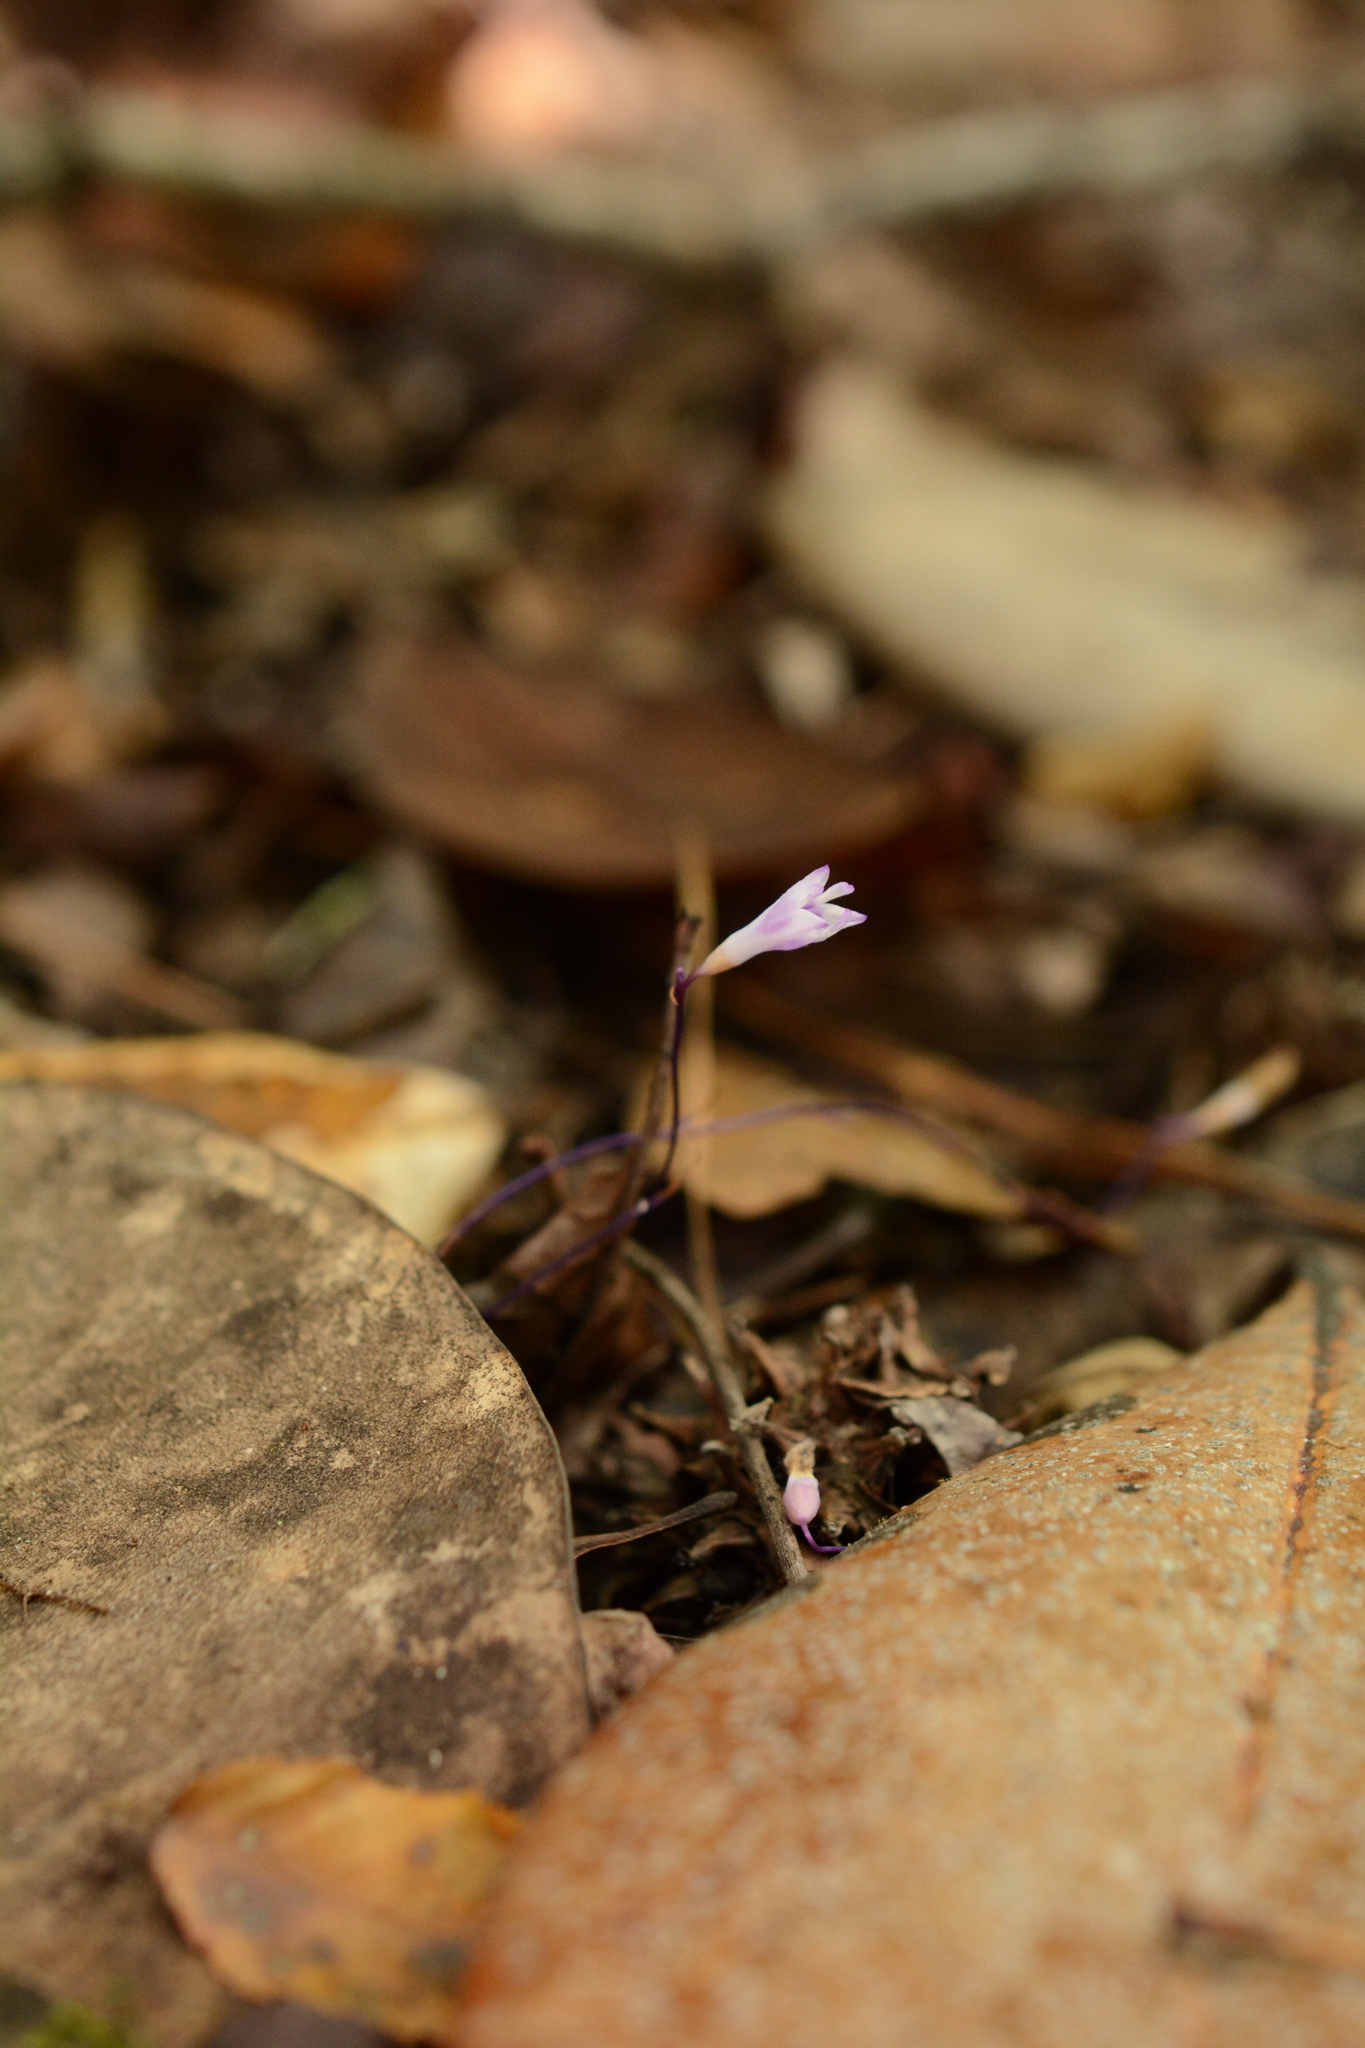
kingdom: Plantae
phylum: Tracheophyta
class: Liliopsida
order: Dioscoreales
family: Burmanniaceae
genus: Apteria
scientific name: Apteria aphylla
